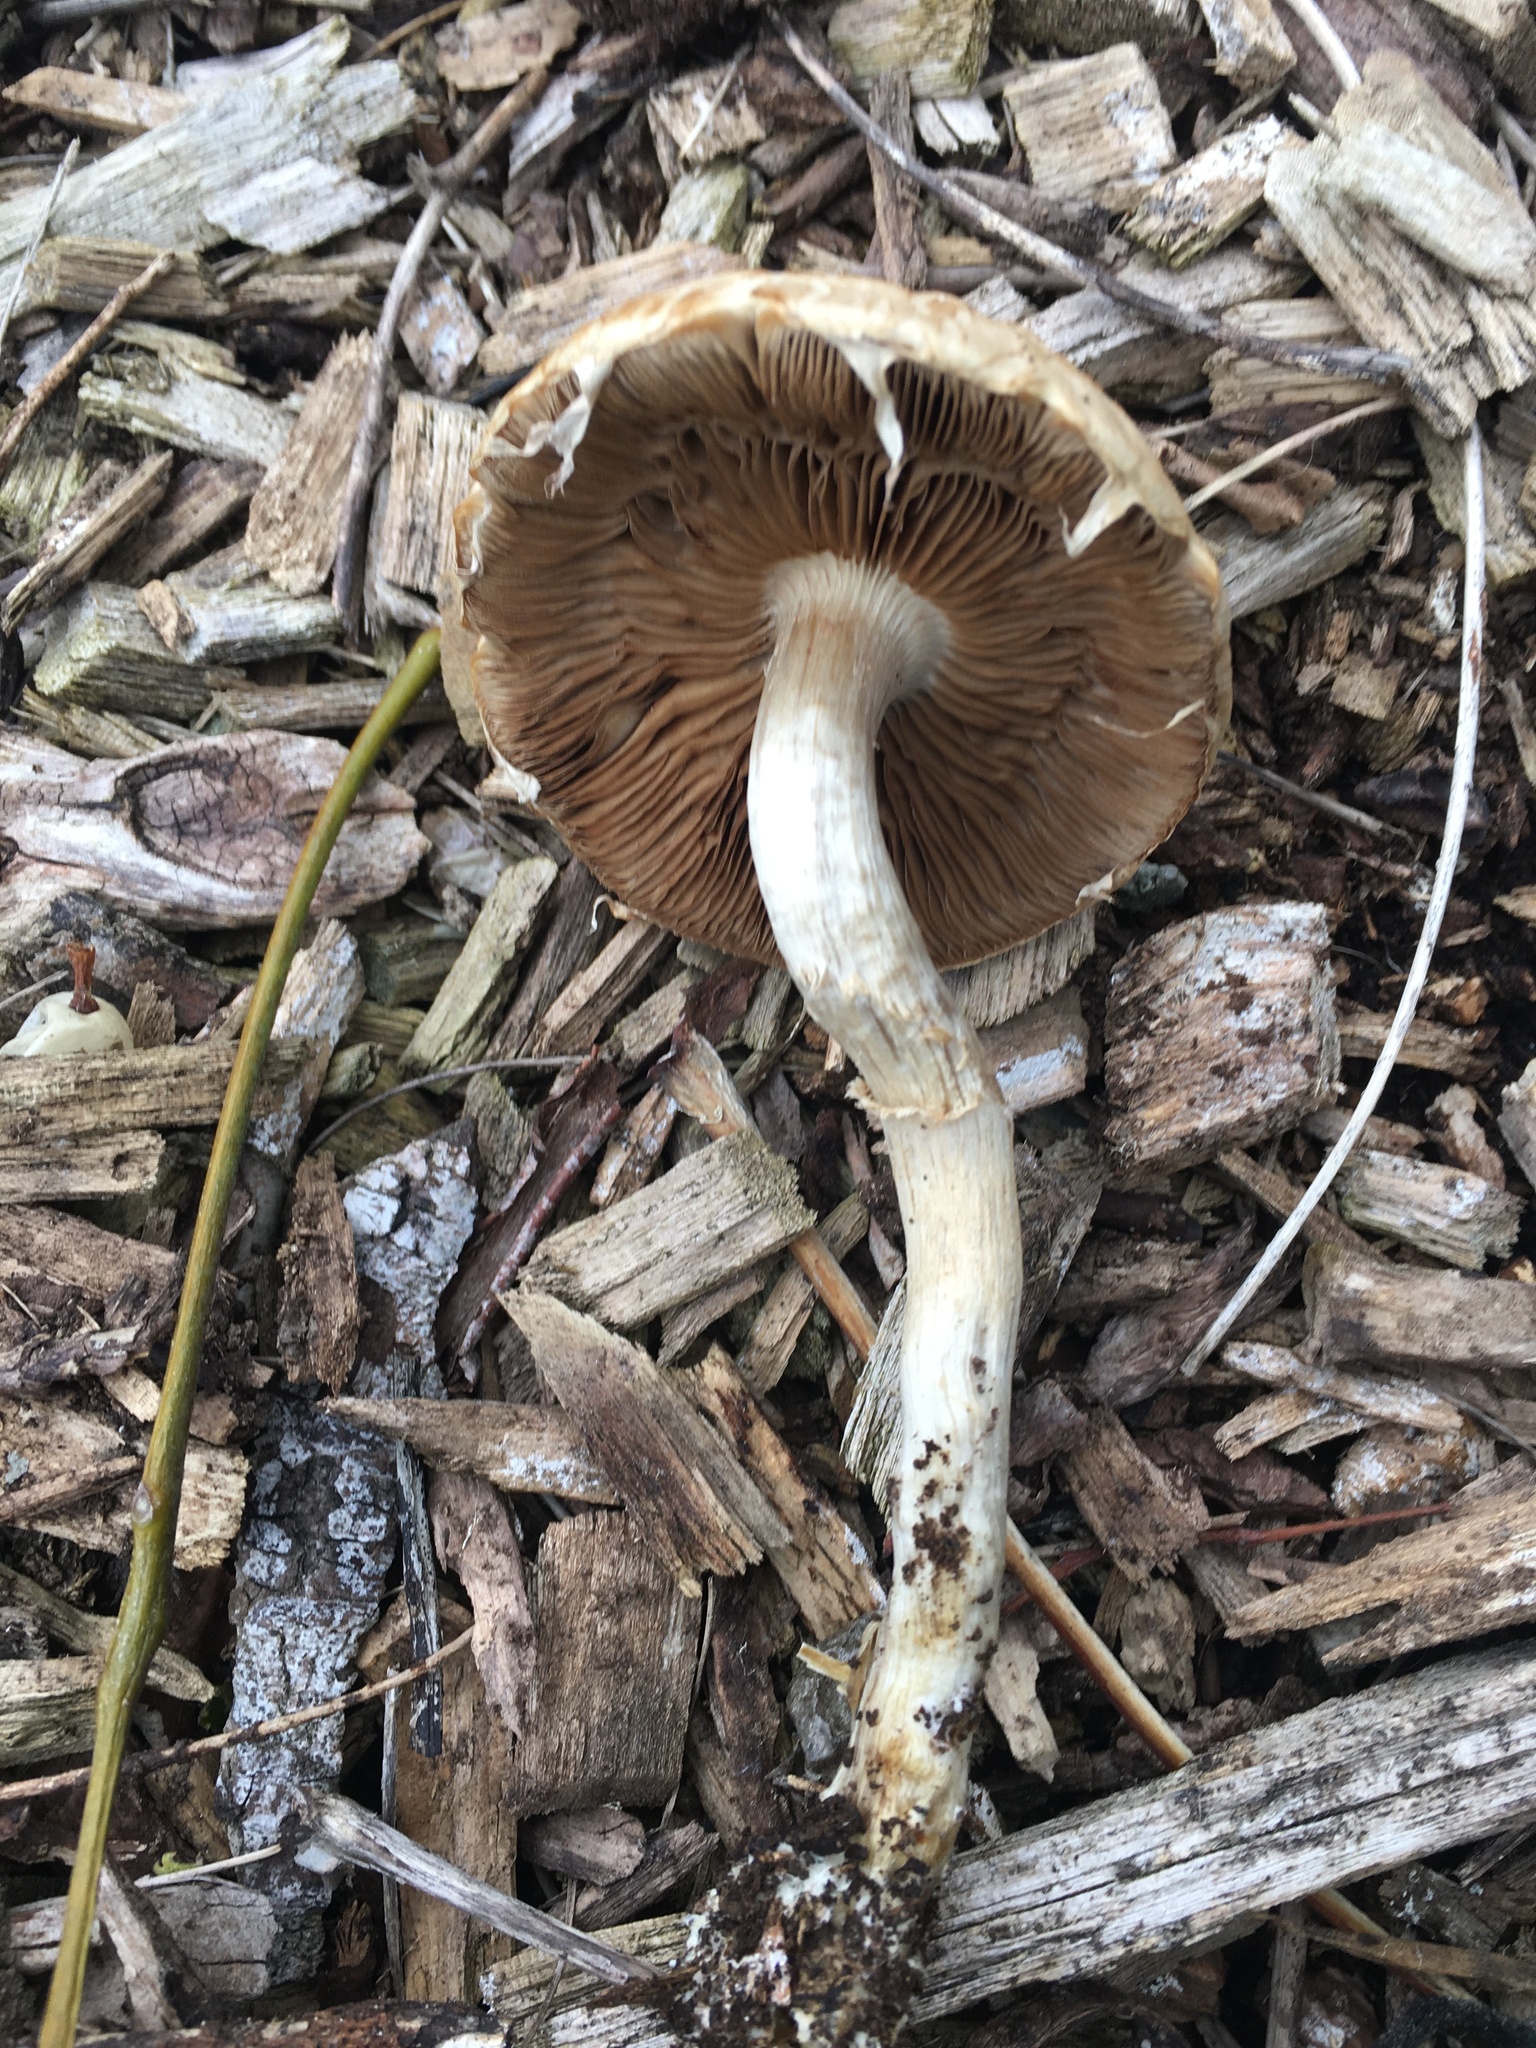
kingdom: Fungi
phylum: Basidiomycota
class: Agaricomycetes
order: Agaricales
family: Strophariaceae
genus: Agrocybe
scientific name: Agrocybe praecox
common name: Spring fieldcap
